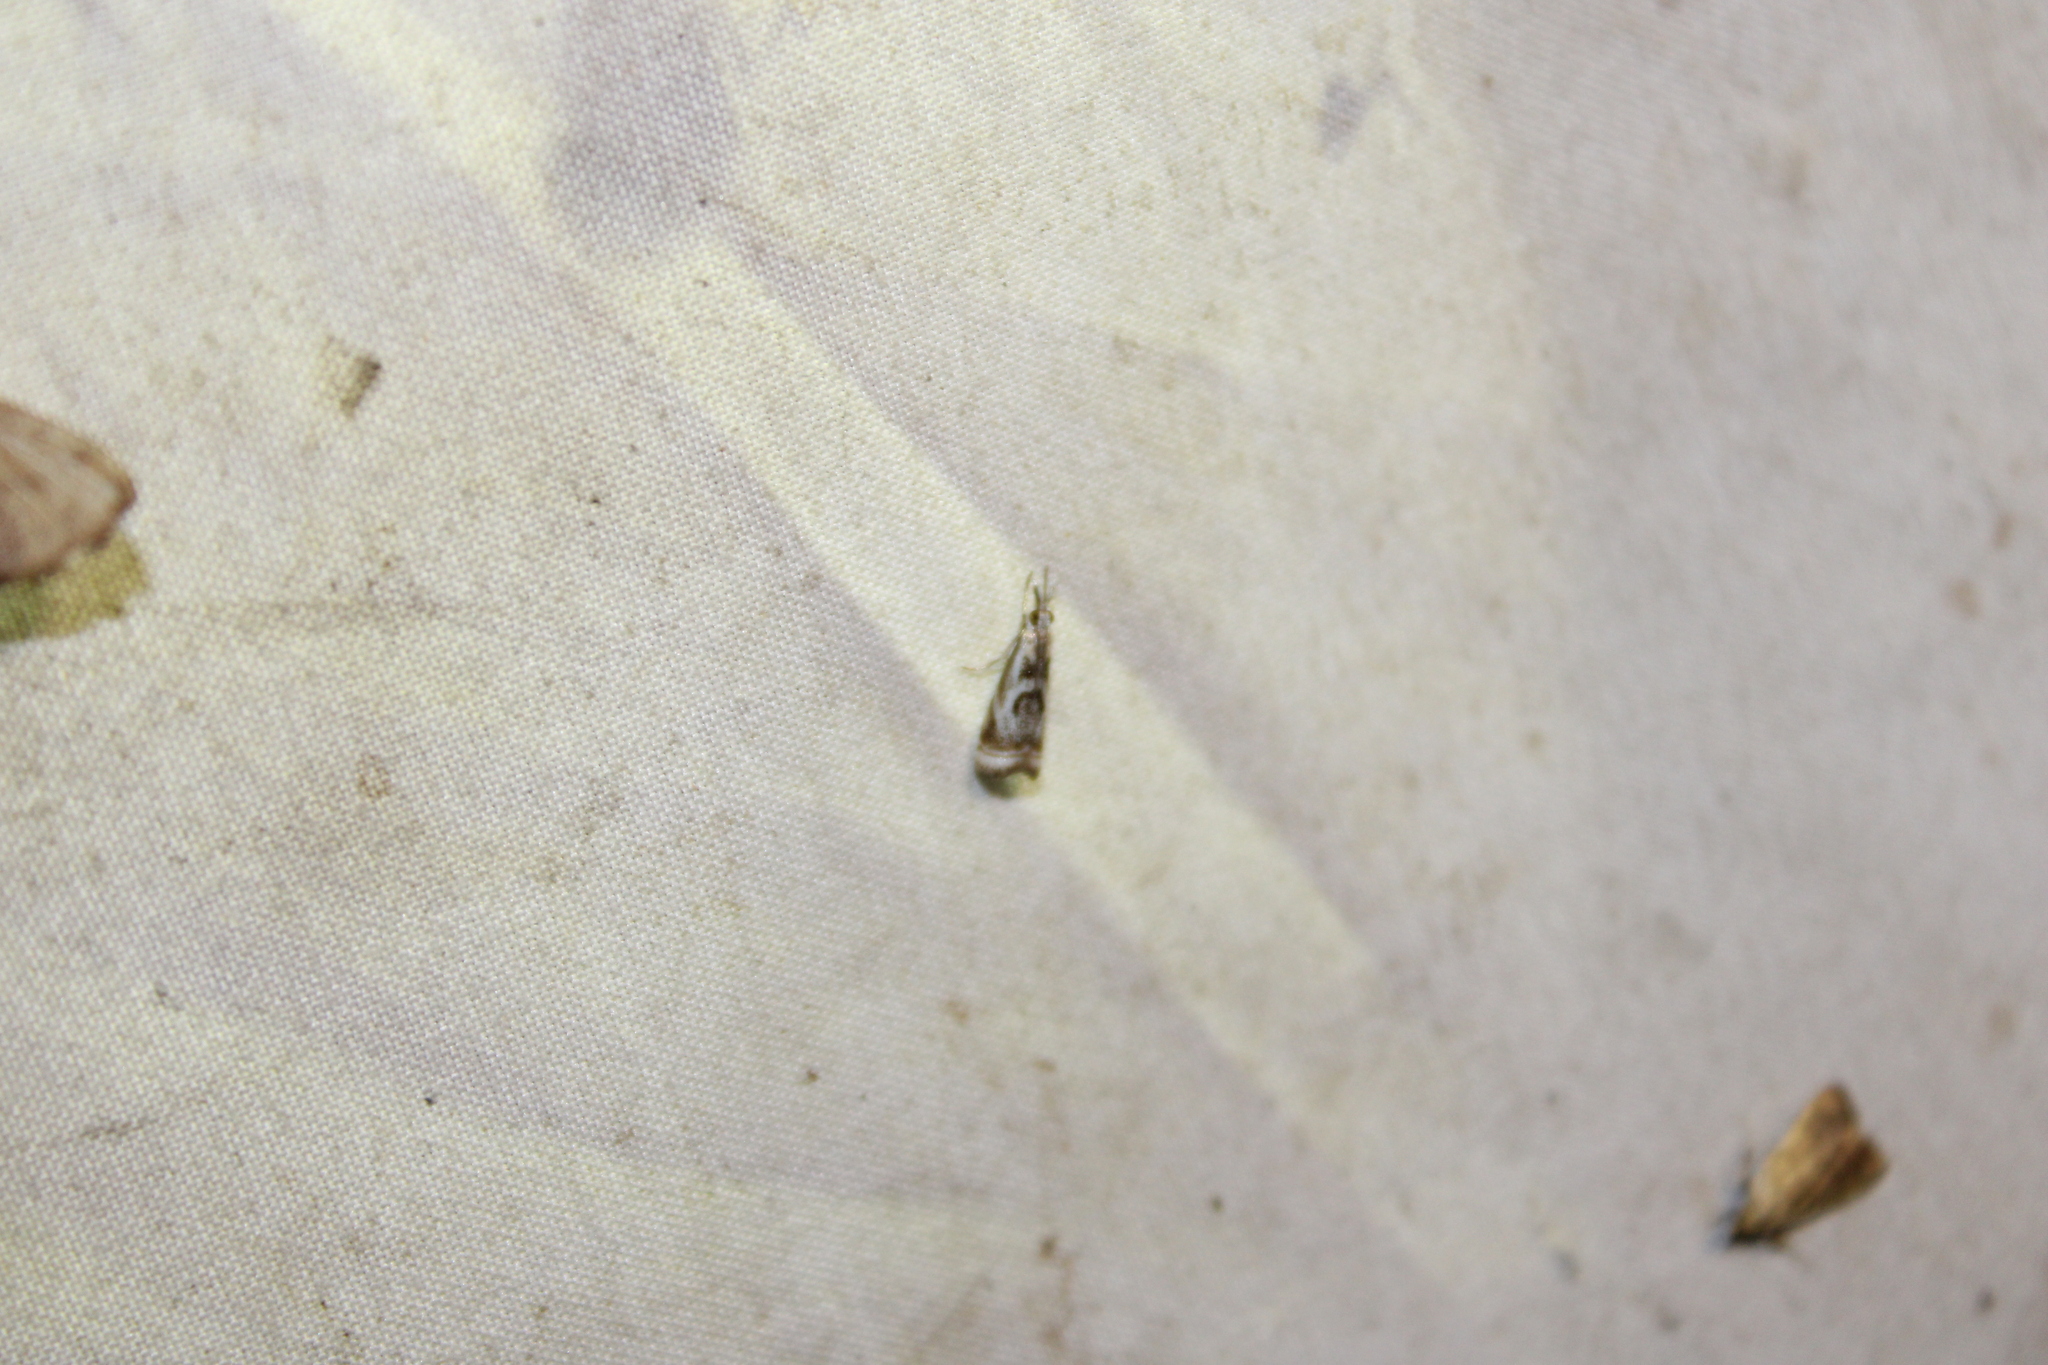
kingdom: Animalia
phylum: Arthropoda
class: Insecta
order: Lepidoptera
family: Crambidae
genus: Microcrambus
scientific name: Microcrambus elegans
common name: Elegant grass-veneer
